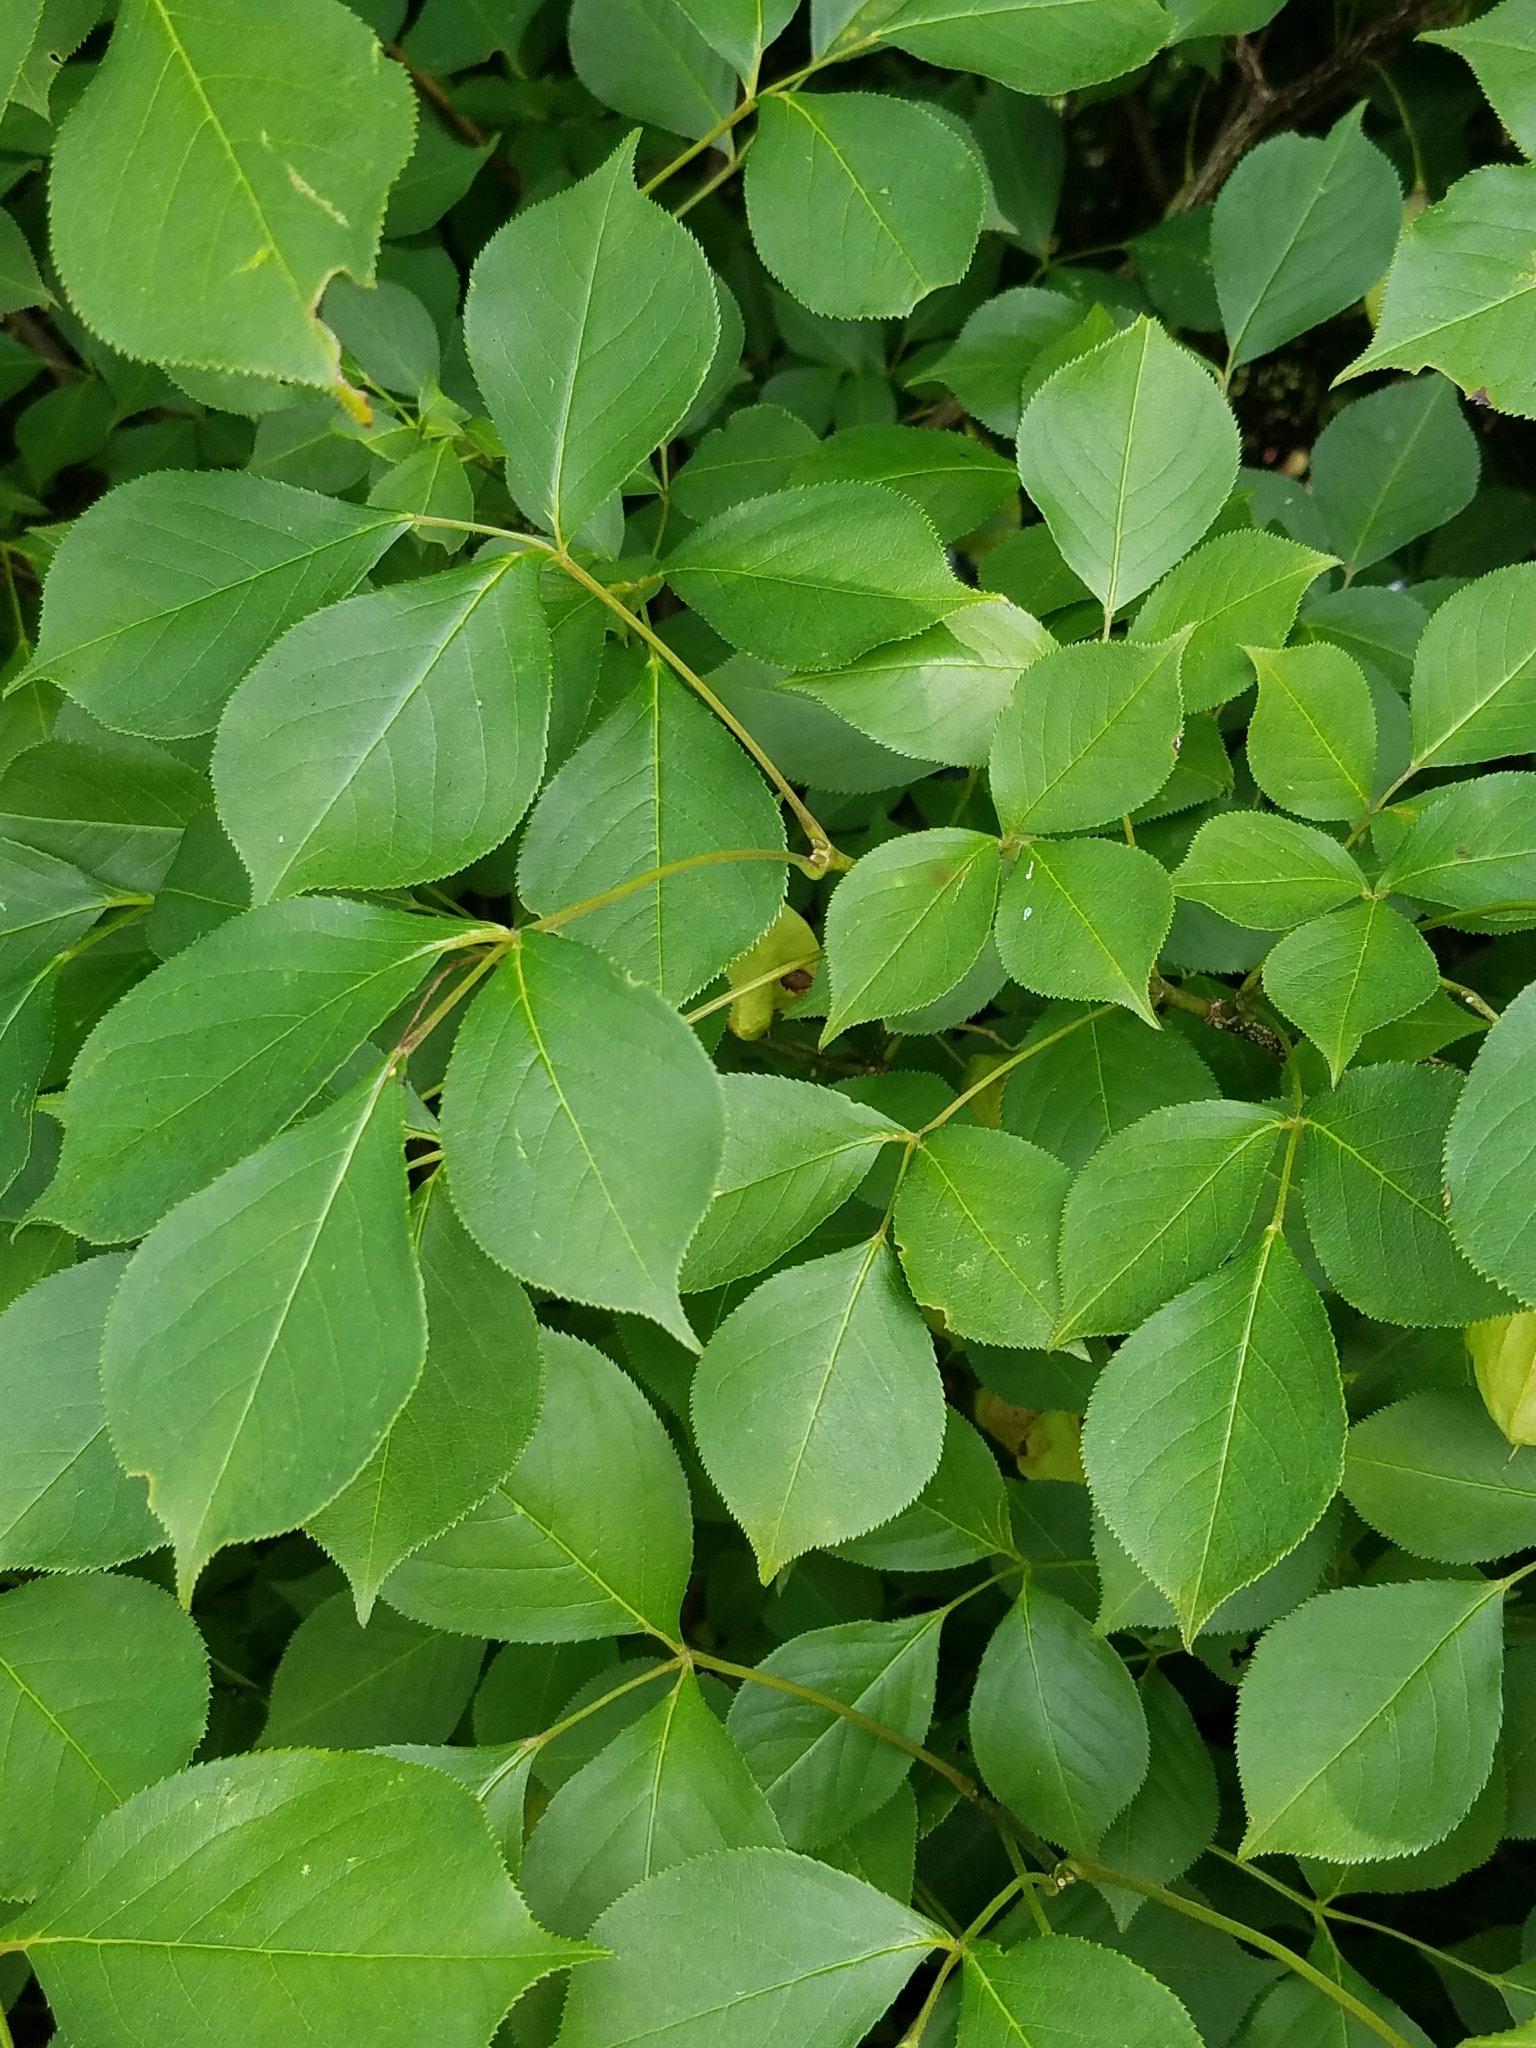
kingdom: Plantae
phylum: Tracheophyta
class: Magnoliopsida
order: Crossosomatales
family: Staphyleaceae
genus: Staphylea
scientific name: Staphylea trifolia
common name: American bladdernut
